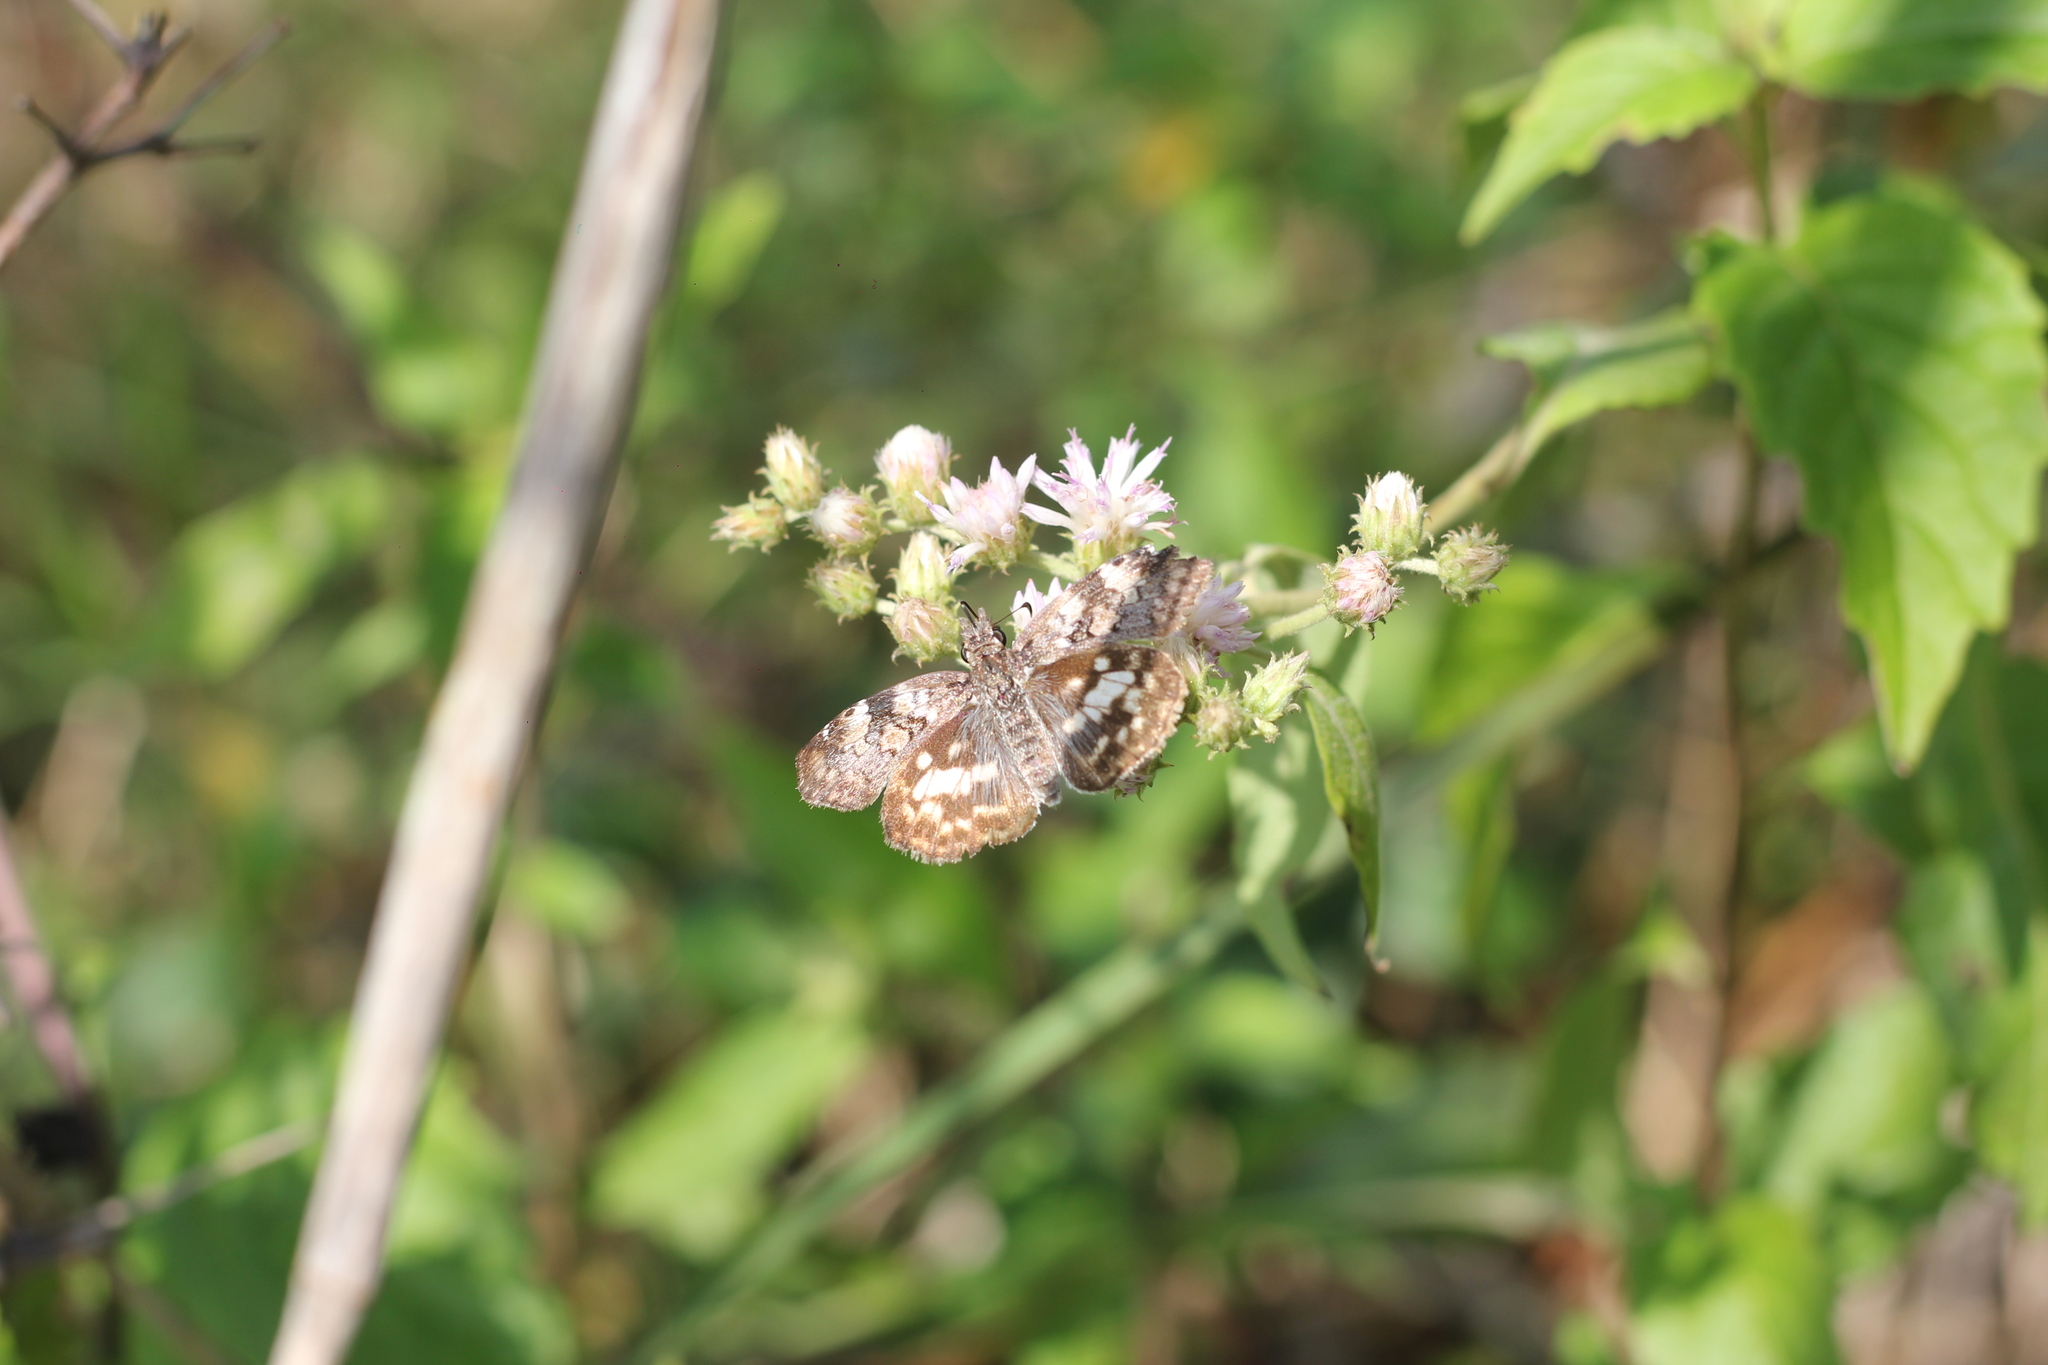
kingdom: Animalia
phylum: Arthropoda
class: Insecta
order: Lepidoptera
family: Hesperiidae
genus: Chiomara
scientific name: Chiomara asychis
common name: White-patterned skipper
